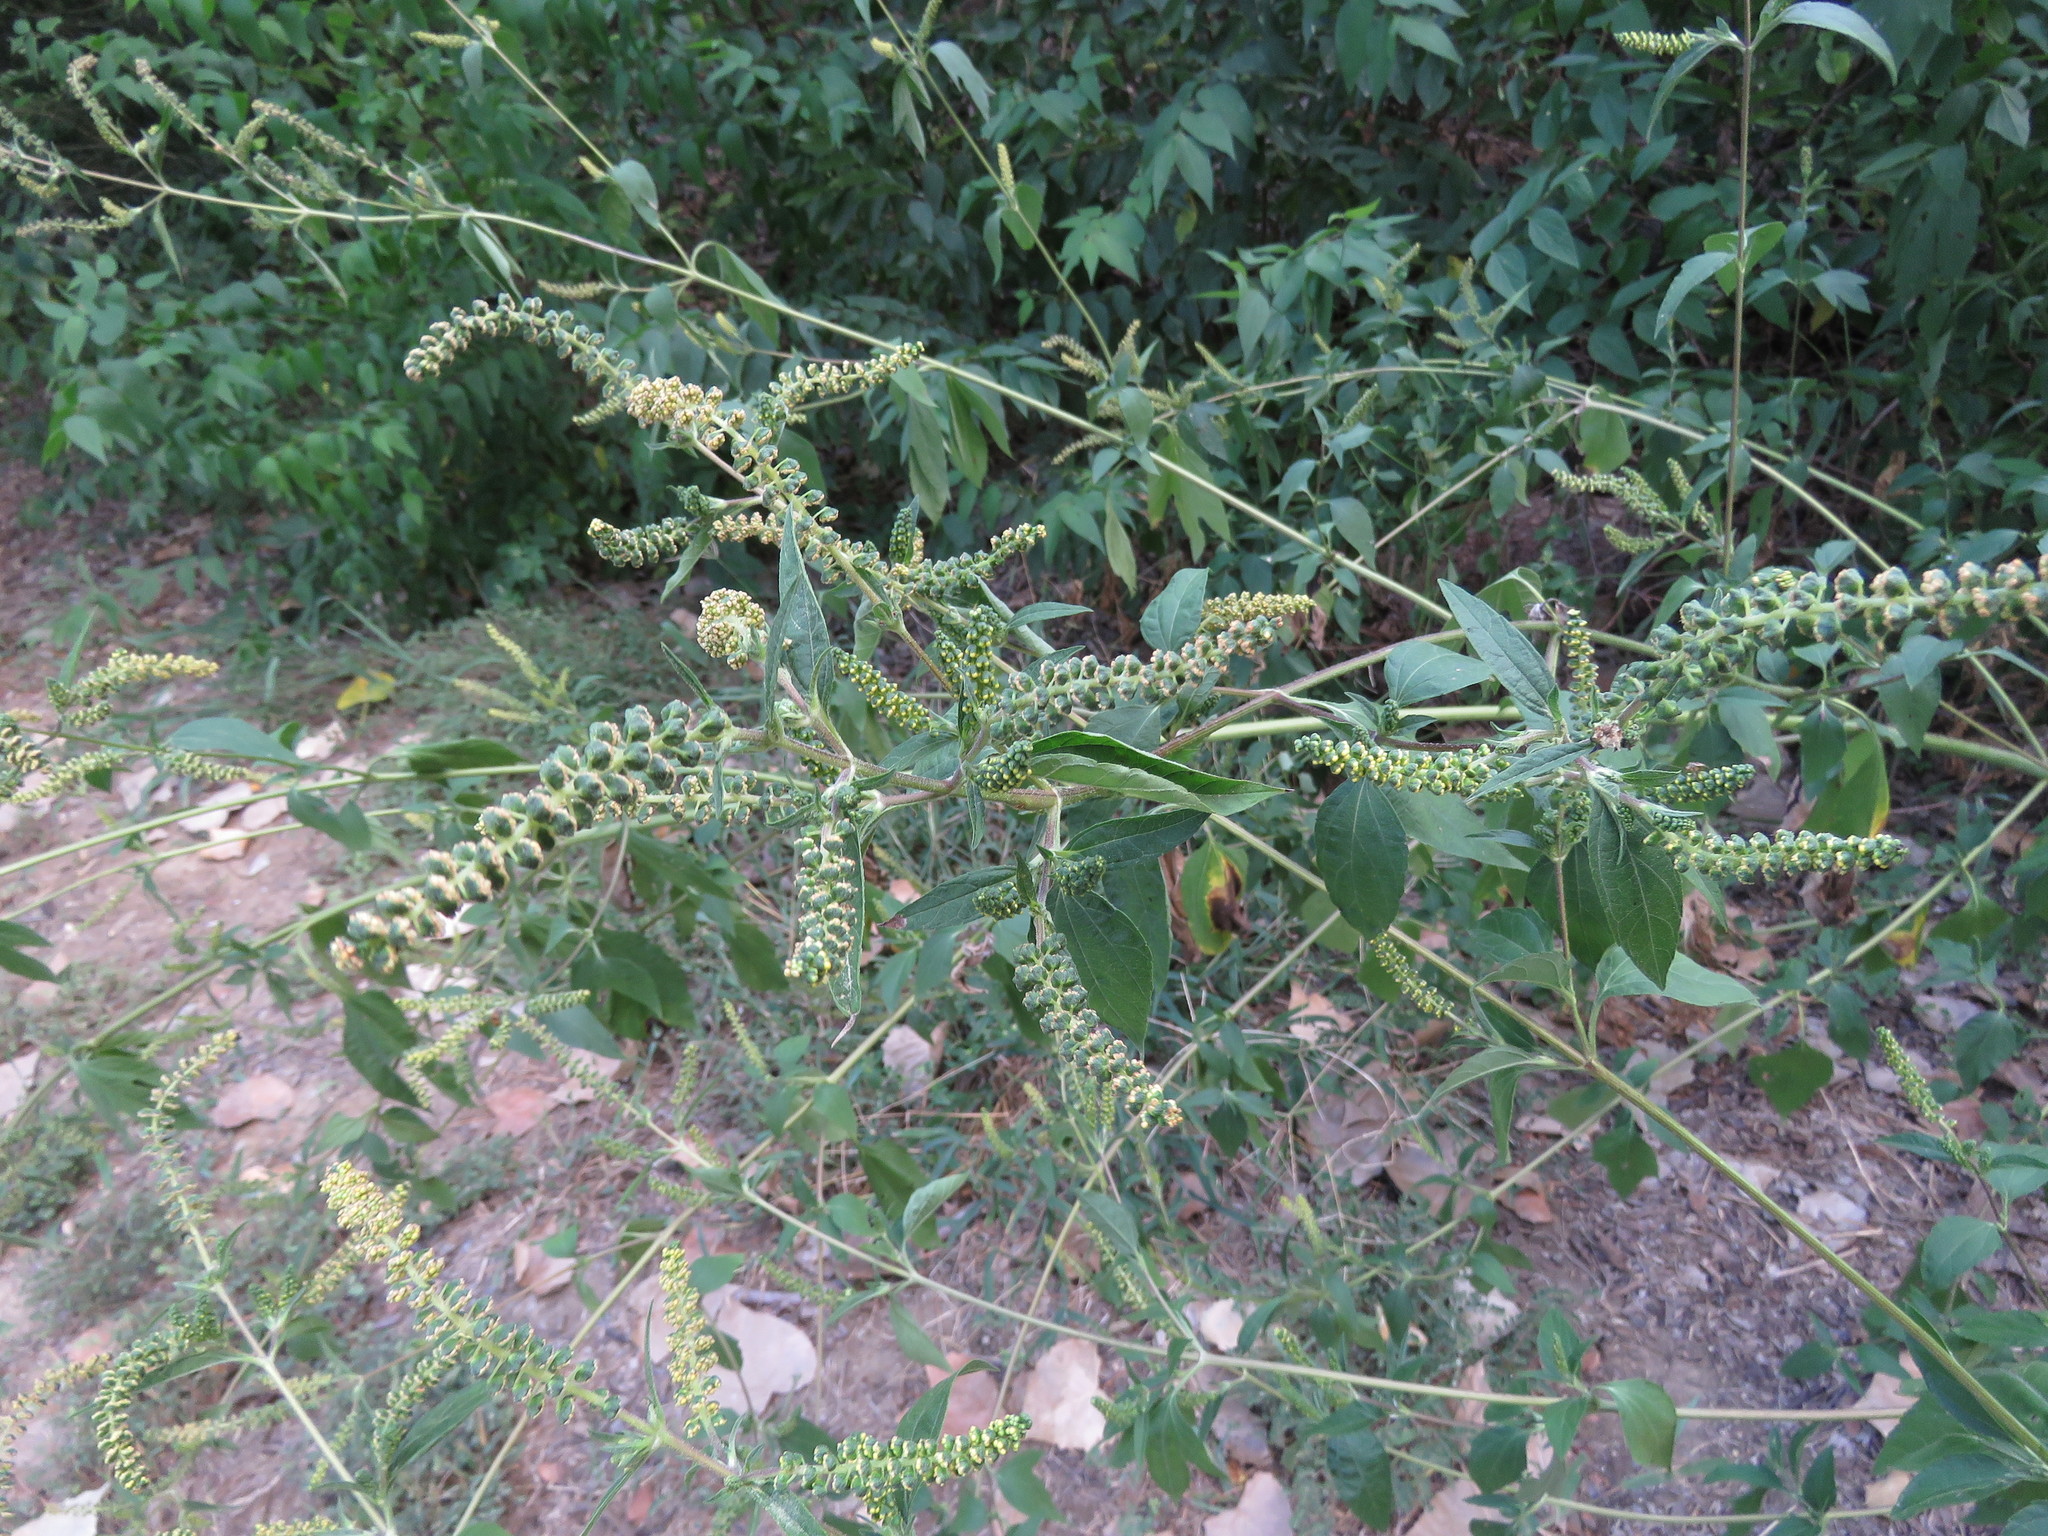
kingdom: Plantae
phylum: Tracheophyta
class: Magnoliopsida
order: Asterales
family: Asteraceae
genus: Ambrosia
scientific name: Ambrosia trifida
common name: Giant ragweed
